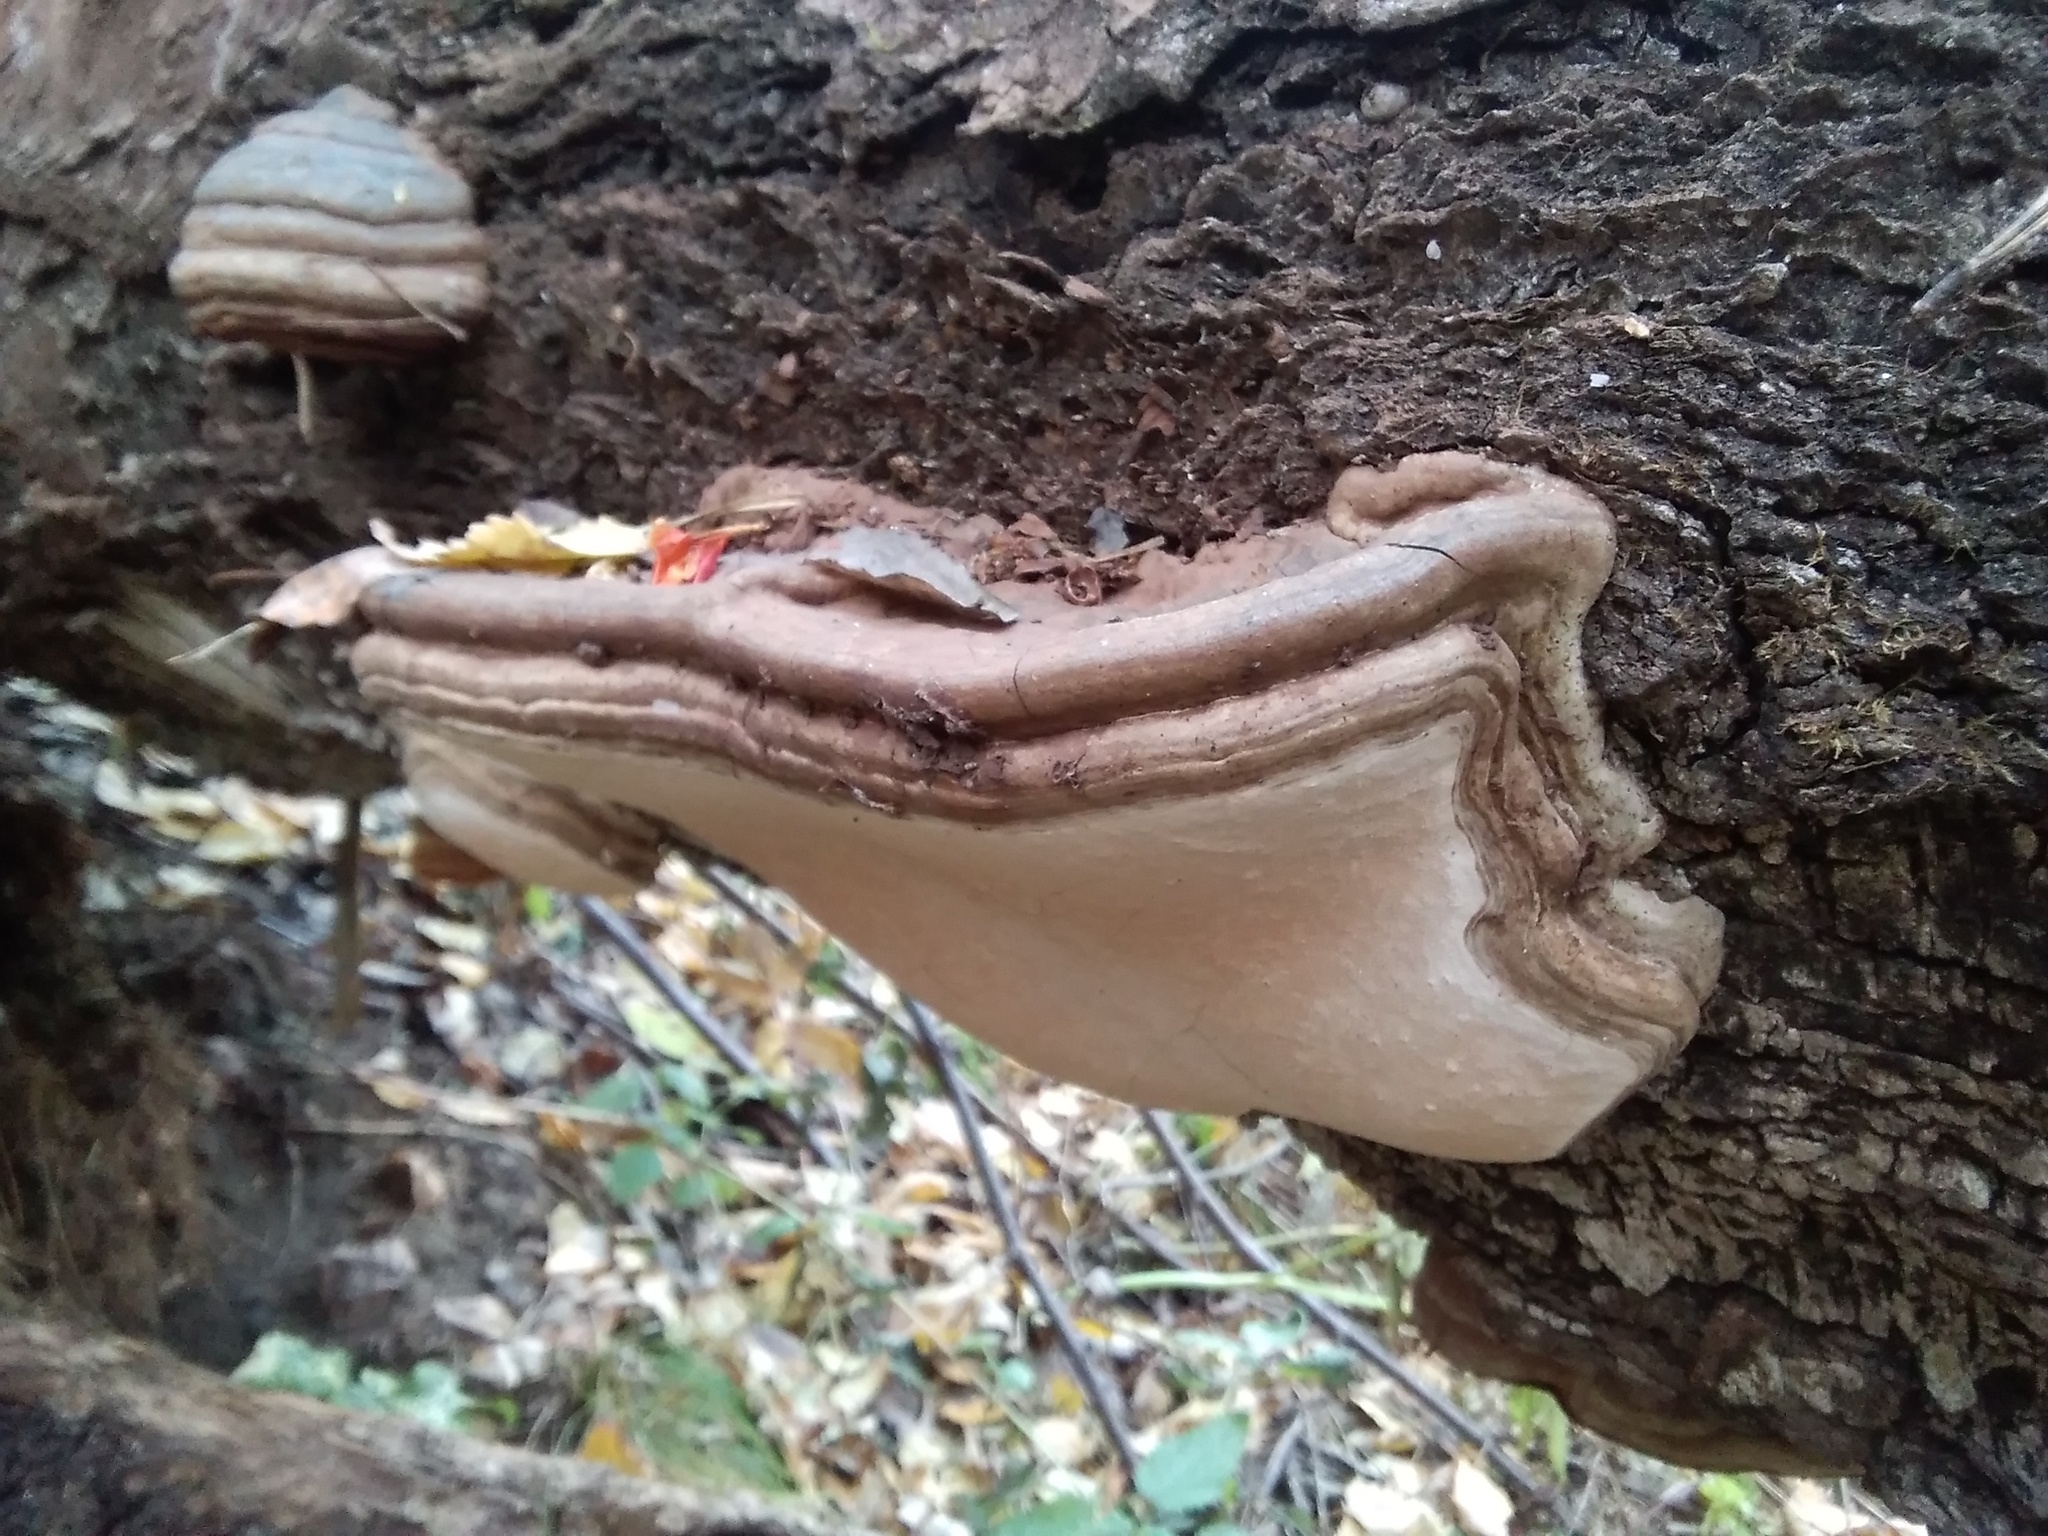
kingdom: Fungi
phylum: Basidiomycota
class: Agaricomycetes
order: Polyporales
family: Polyporaceae
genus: Ganoderma
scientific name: Ganoderma applanatum
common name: Artist's bracket
